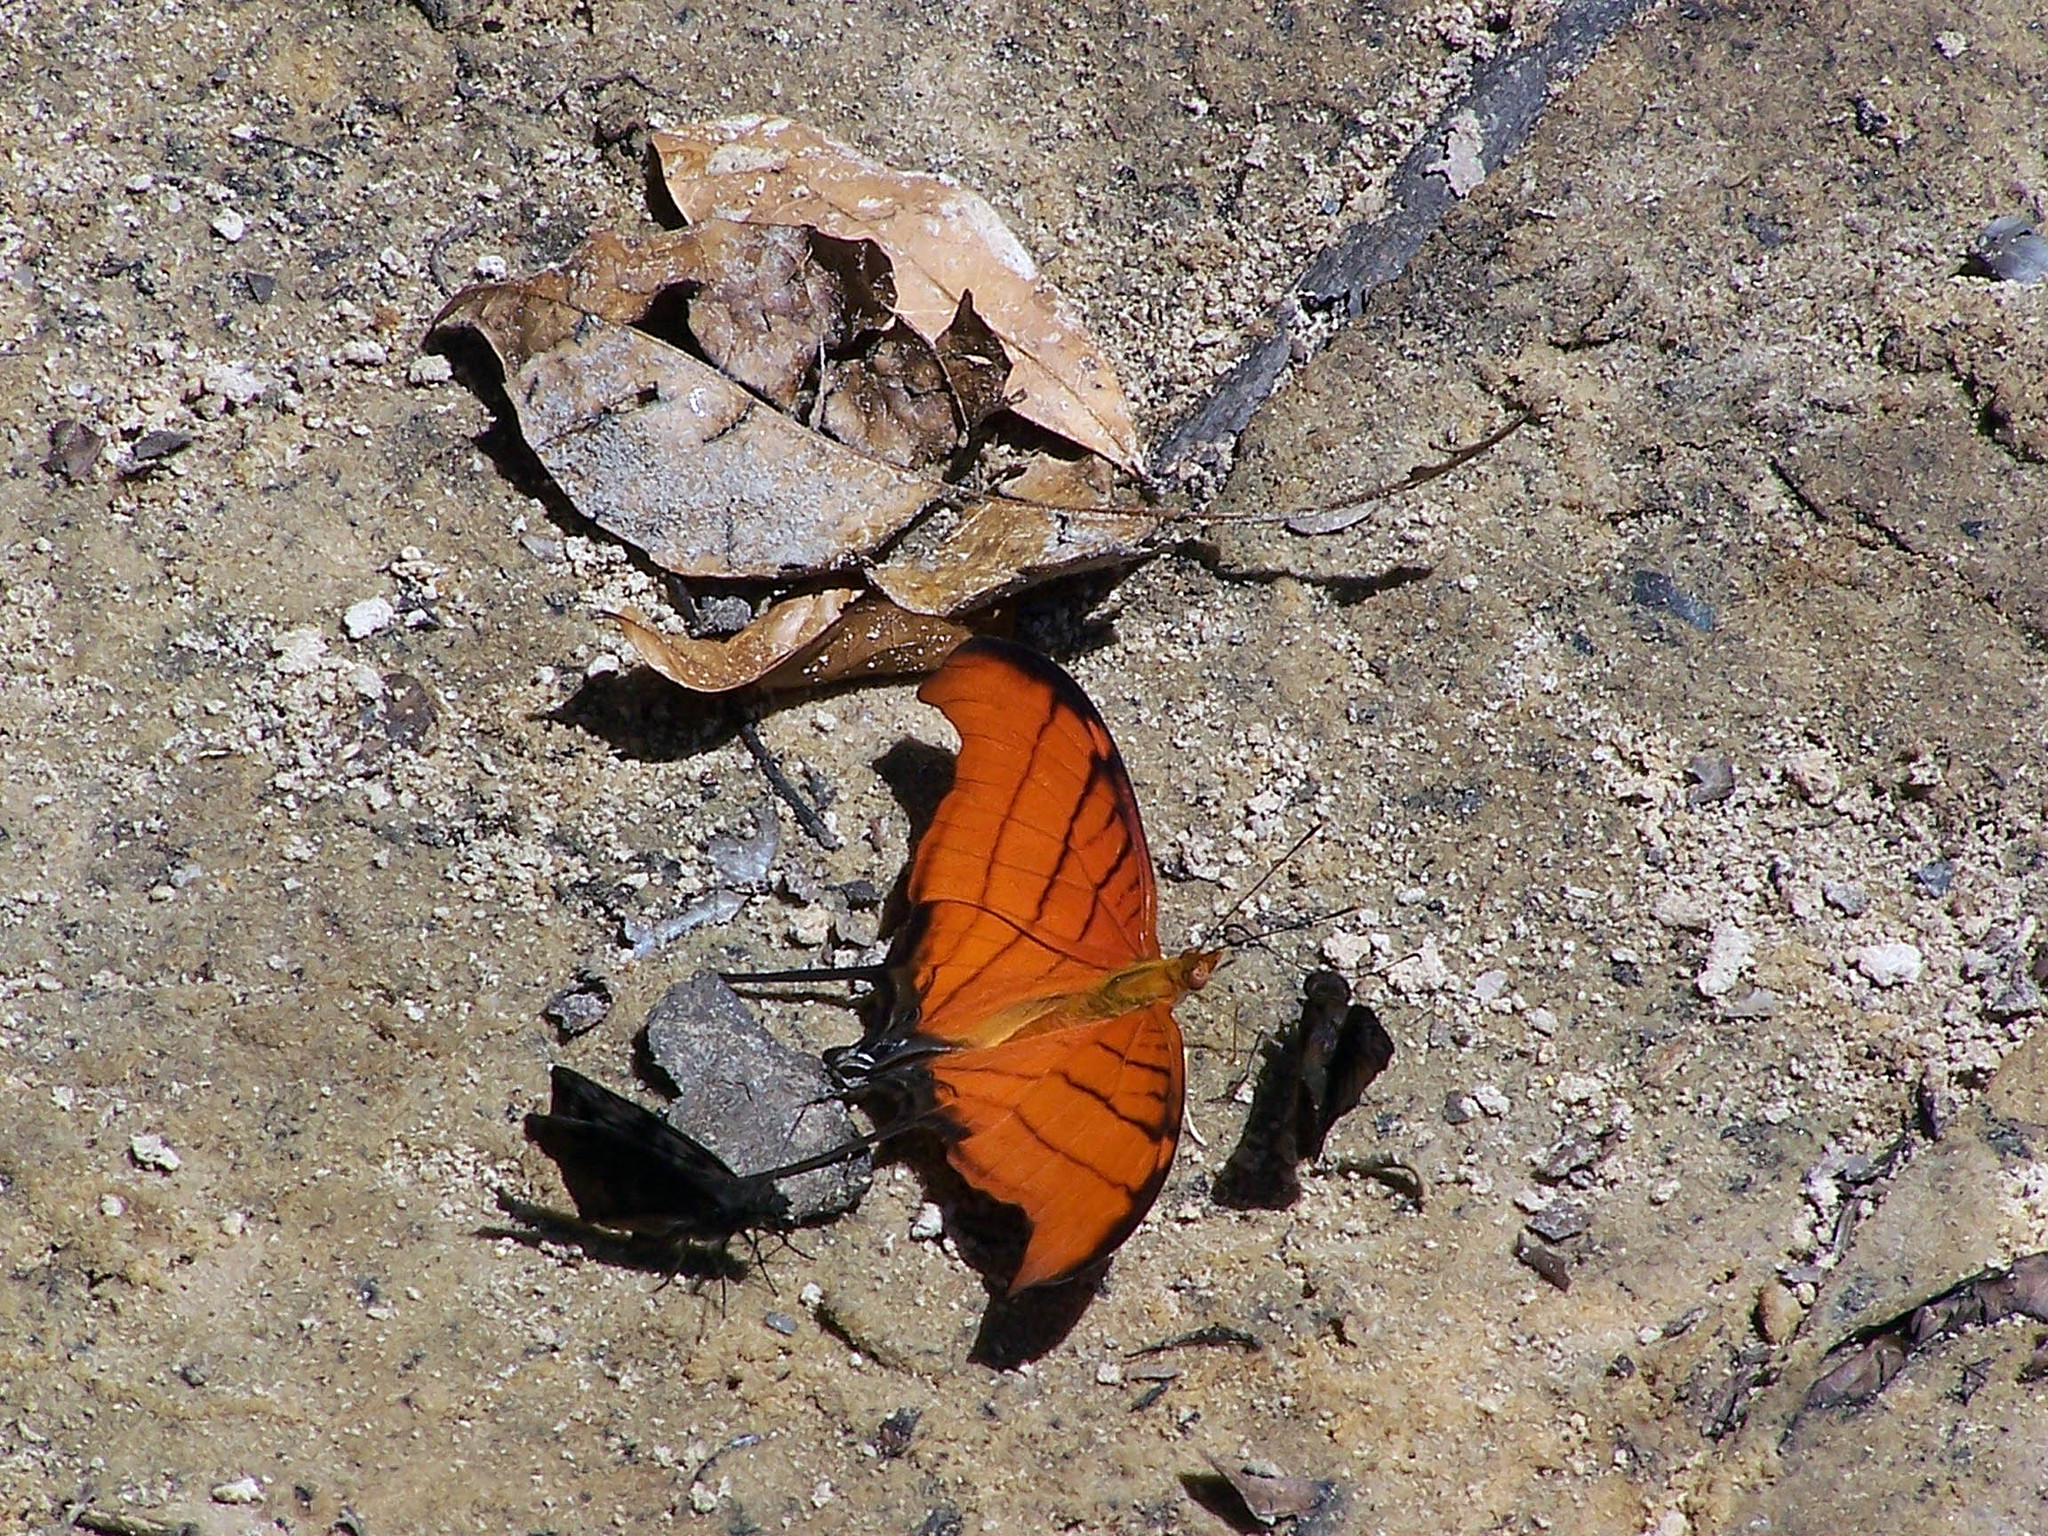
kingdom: Animalia
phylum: Arthropoda
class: Insecta
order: Lepidoptera
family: Nymphalidae
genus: Marpesia
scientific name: Marpesia petreus
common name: Red dagger wing
